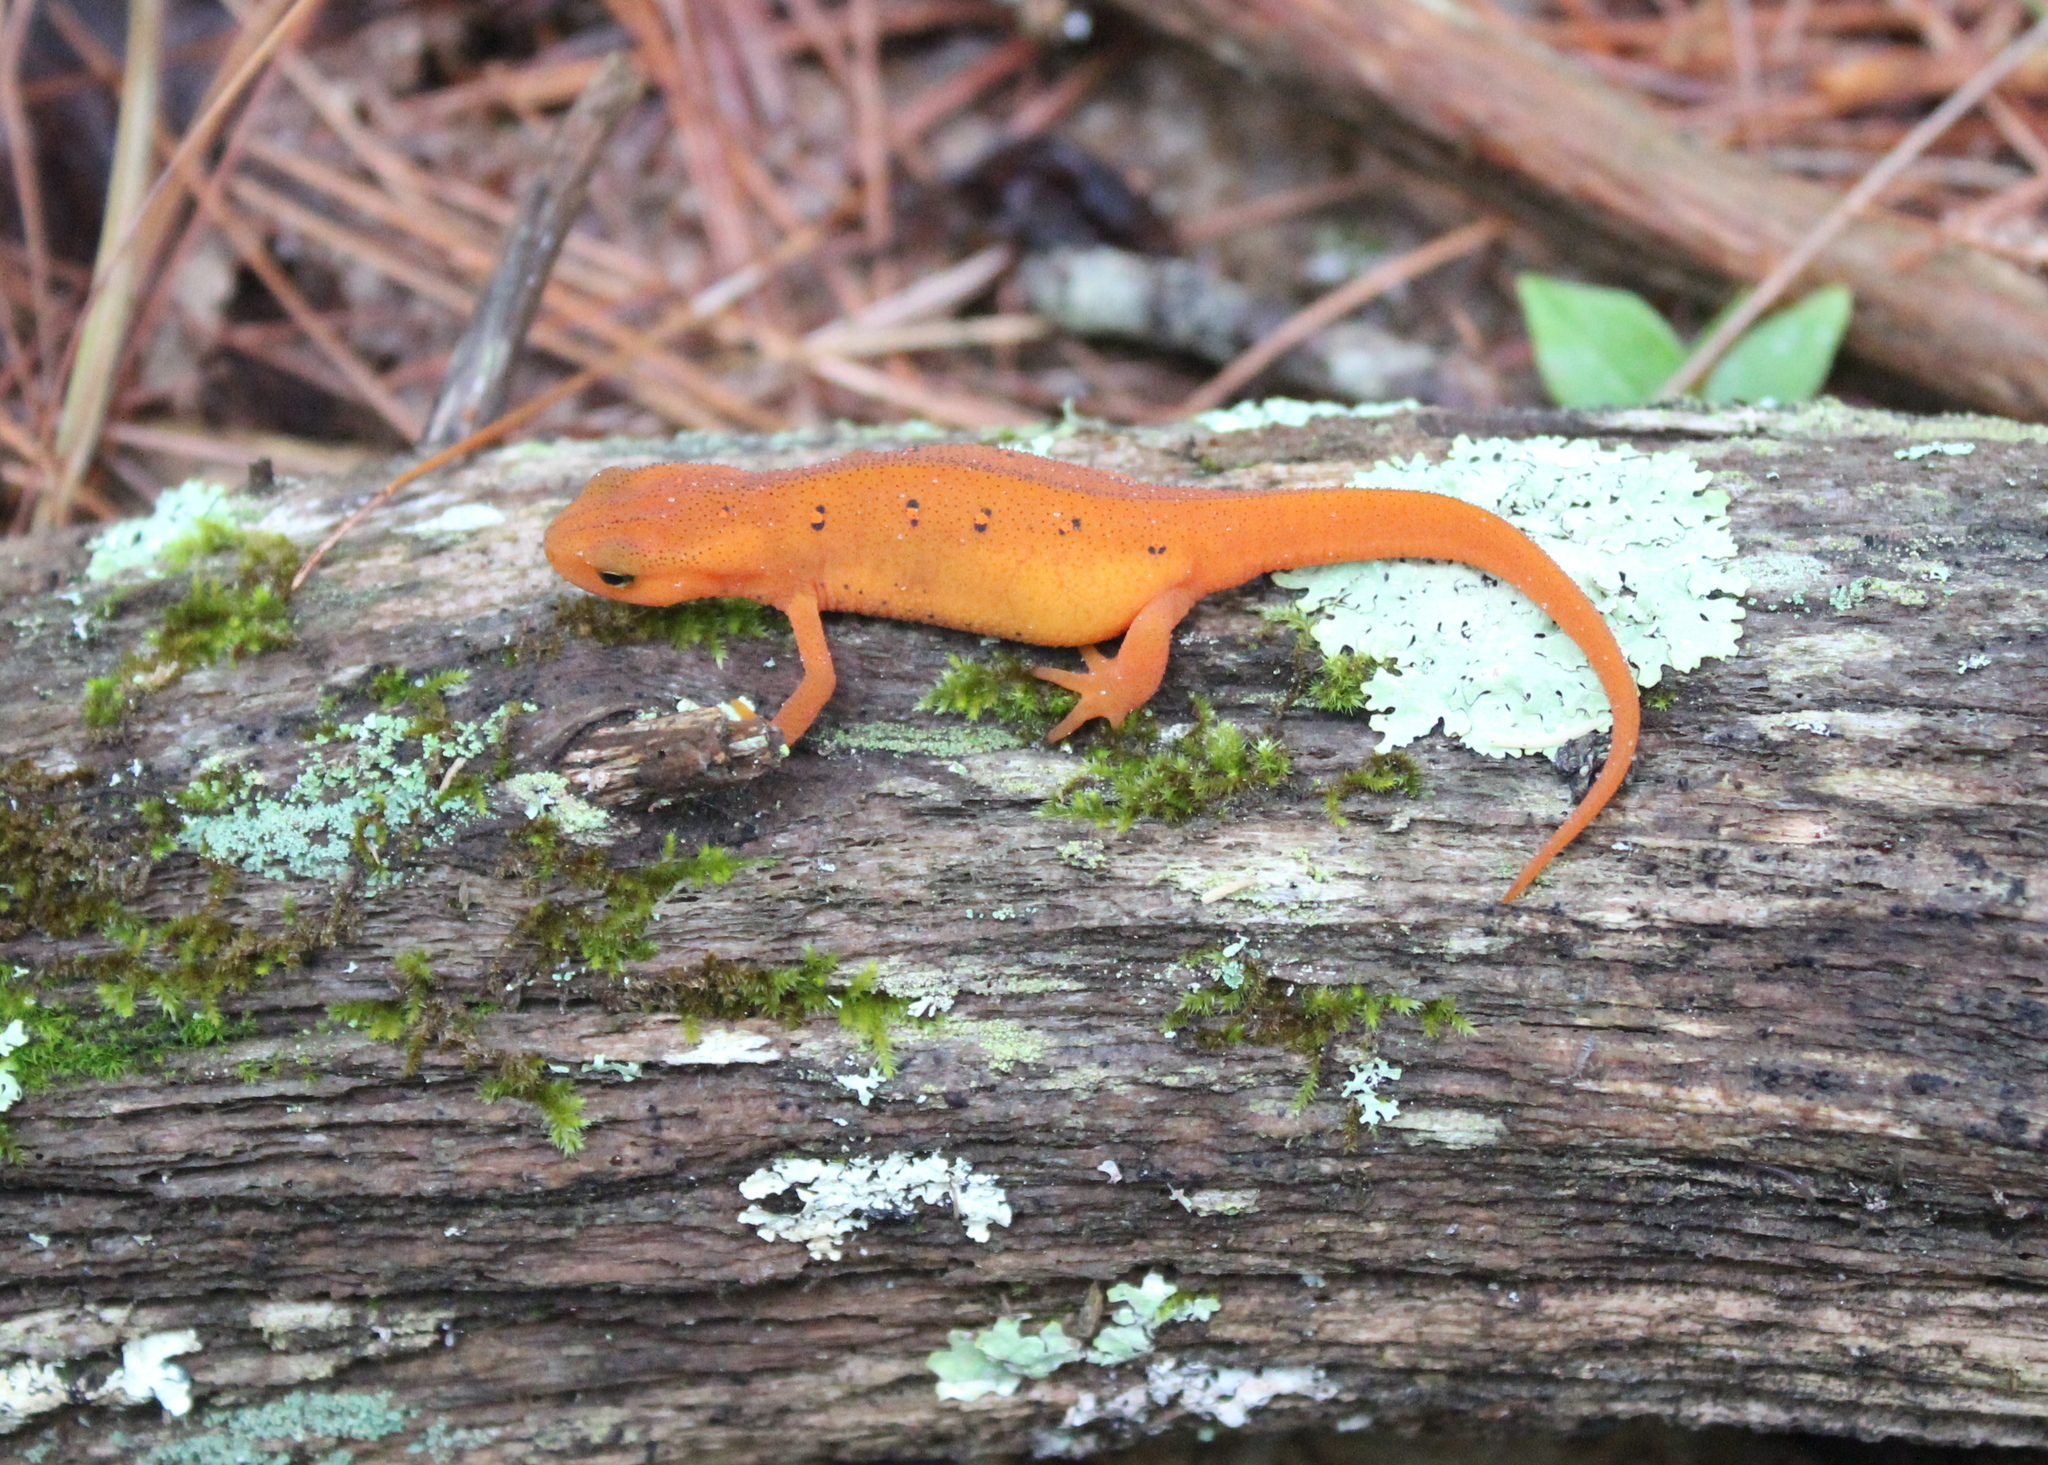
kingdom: Animalia
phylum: Chordata
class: Amphibia
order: Caudata
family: Salamandridae
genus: Notophthalmus
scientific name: Notophthalmus viridescens
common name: Eastern newt
